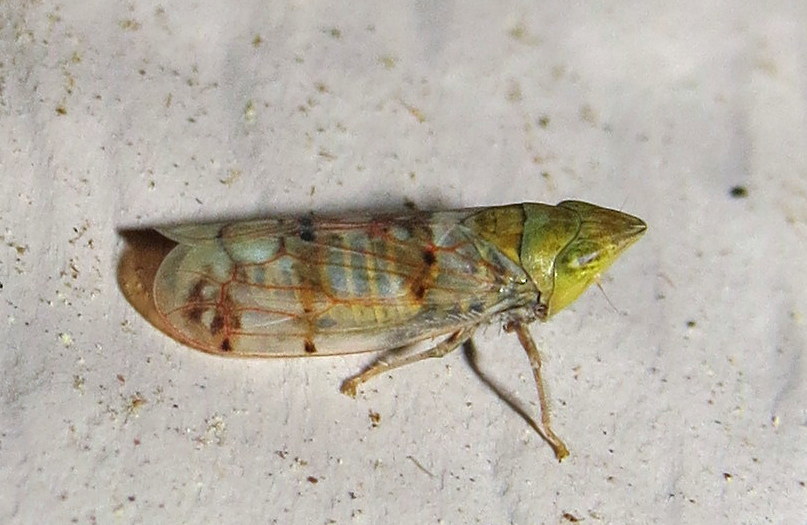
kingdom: Animalia
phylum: Arthropoda
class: Insecta
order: Hemiptera
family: Cicadellidae
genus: Japananus
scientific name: Japananus hyalinus
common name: The japanese maple leafhopper
